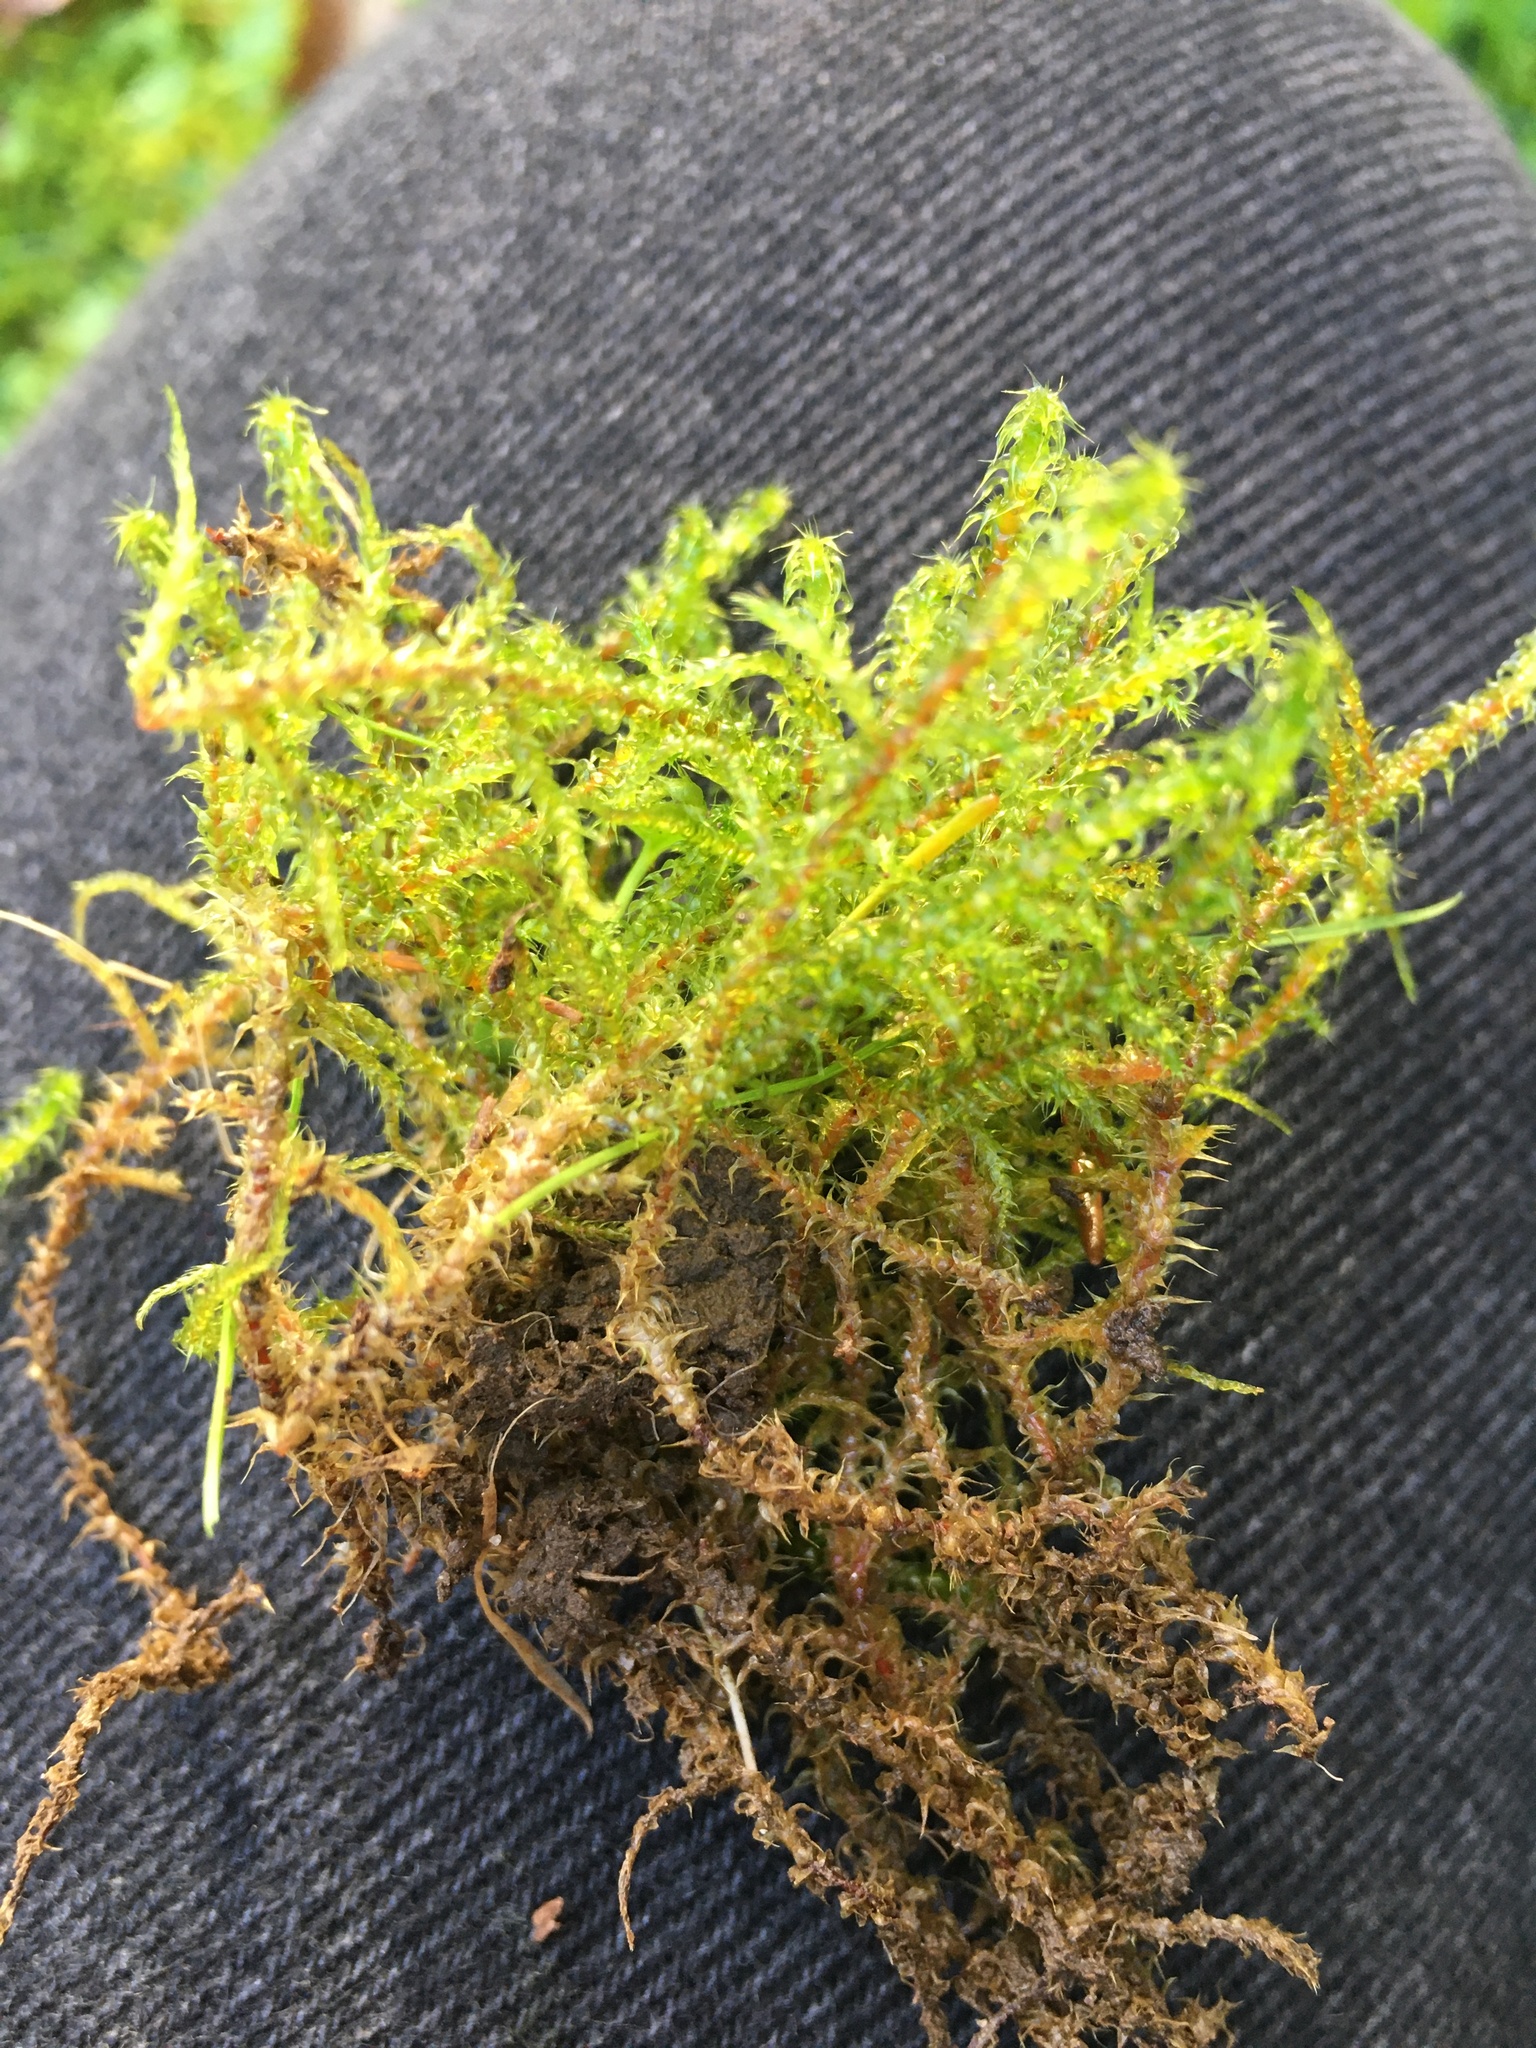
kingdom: Plantae
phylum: Bryophyta
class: Bryopsida
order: Hypnales
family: Hylocomiaceae
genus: Rhytidiadelphus
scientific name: Rhytidiadelphus squarrosus
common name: Springy turf-moss
